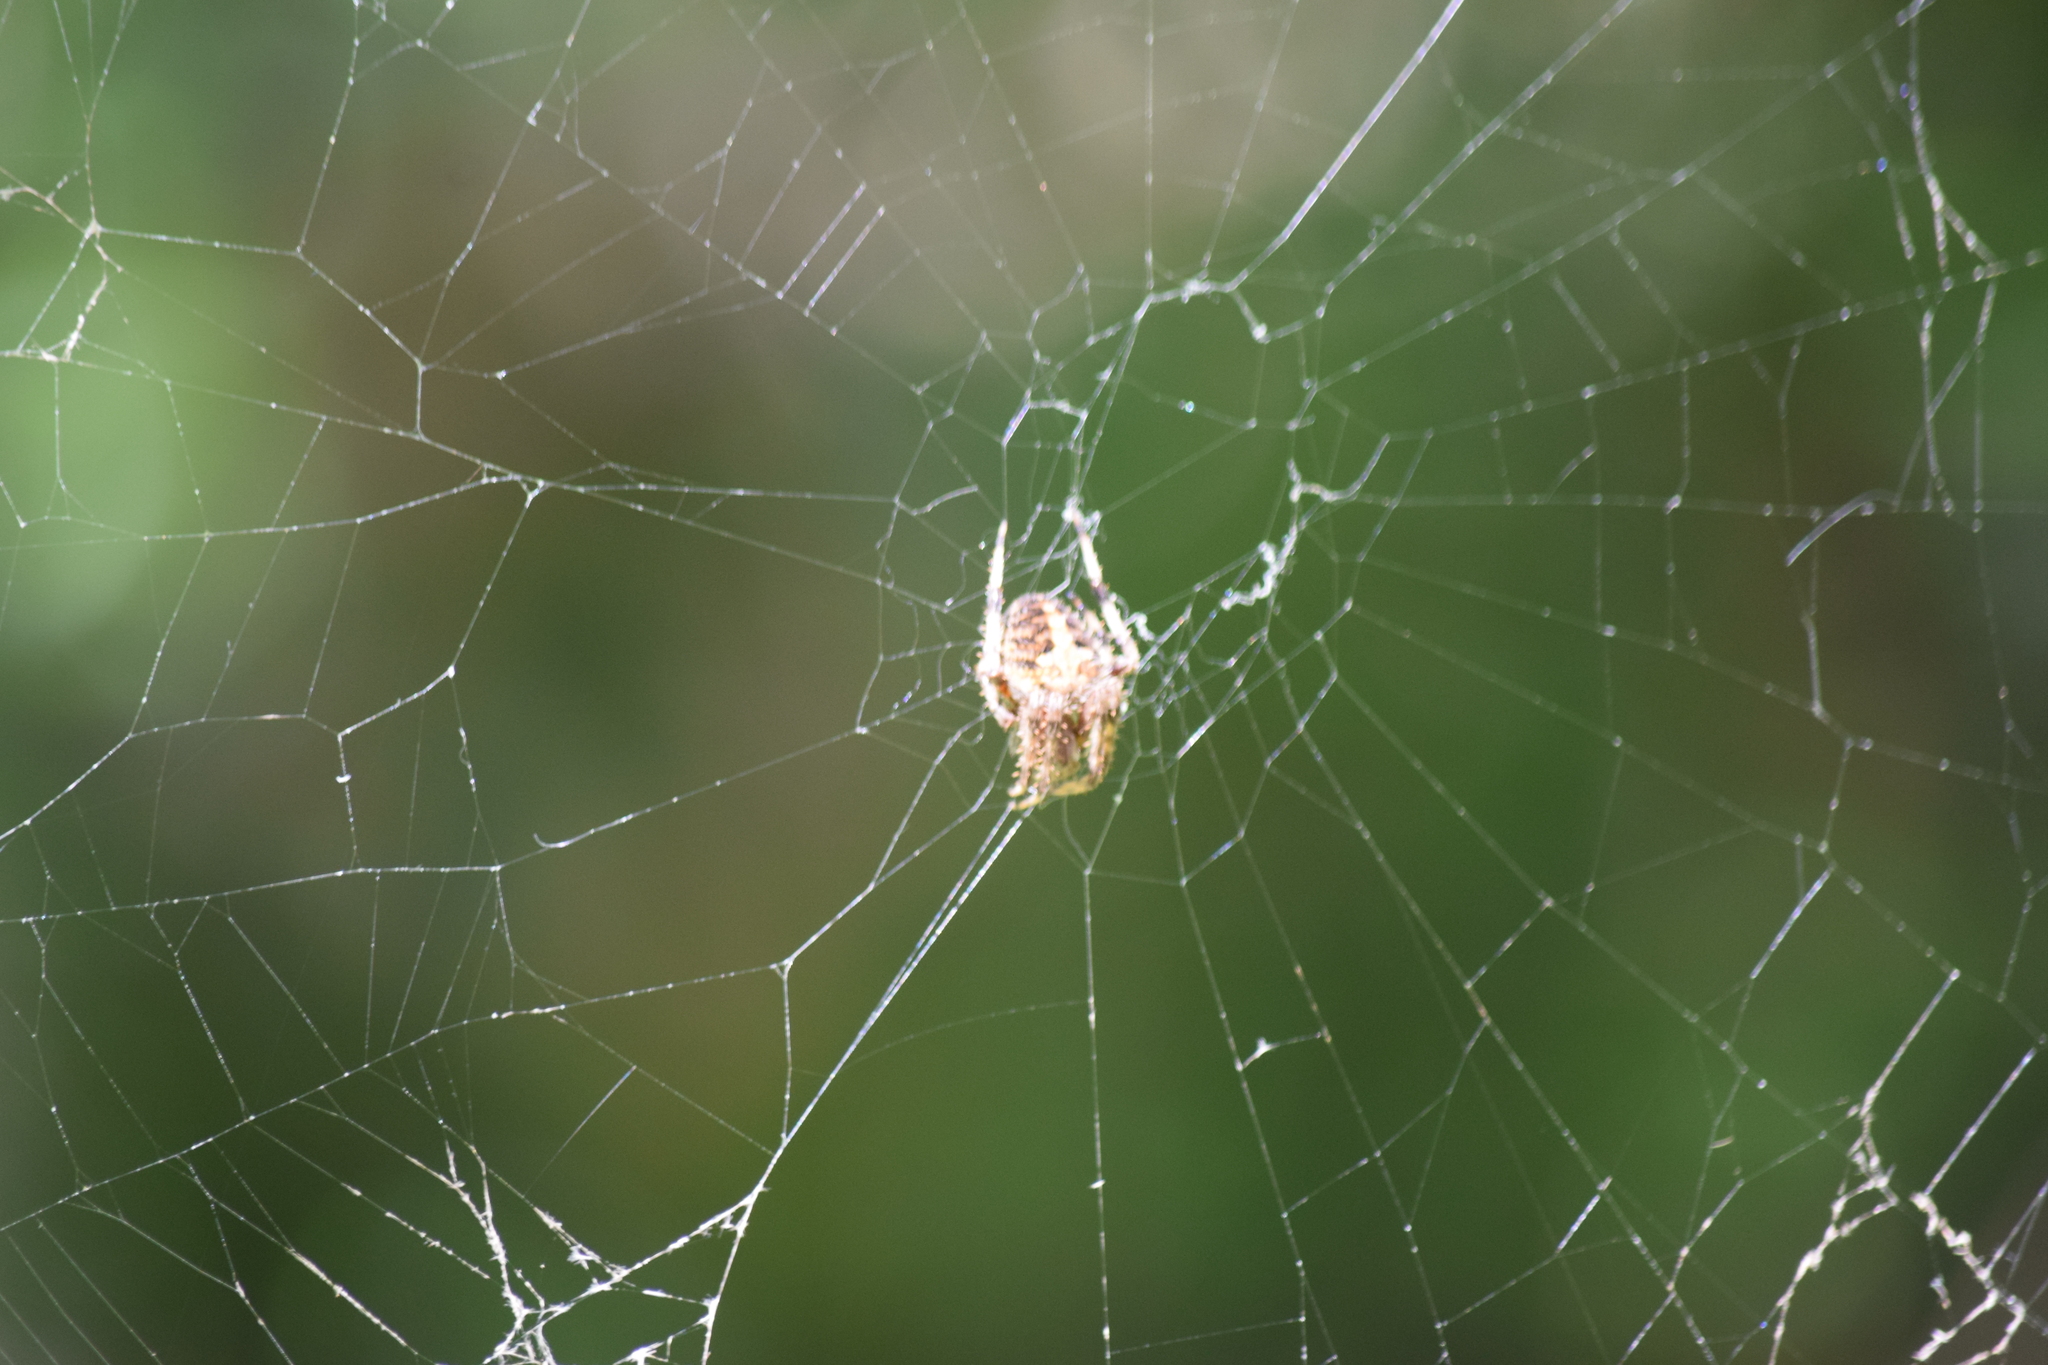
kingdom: Animalia
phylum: Arthropoda
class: Arachnida
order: Araneae
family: Araneidae
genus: Neoscona
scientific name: Neoscona arabesca
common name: Orb weavers
